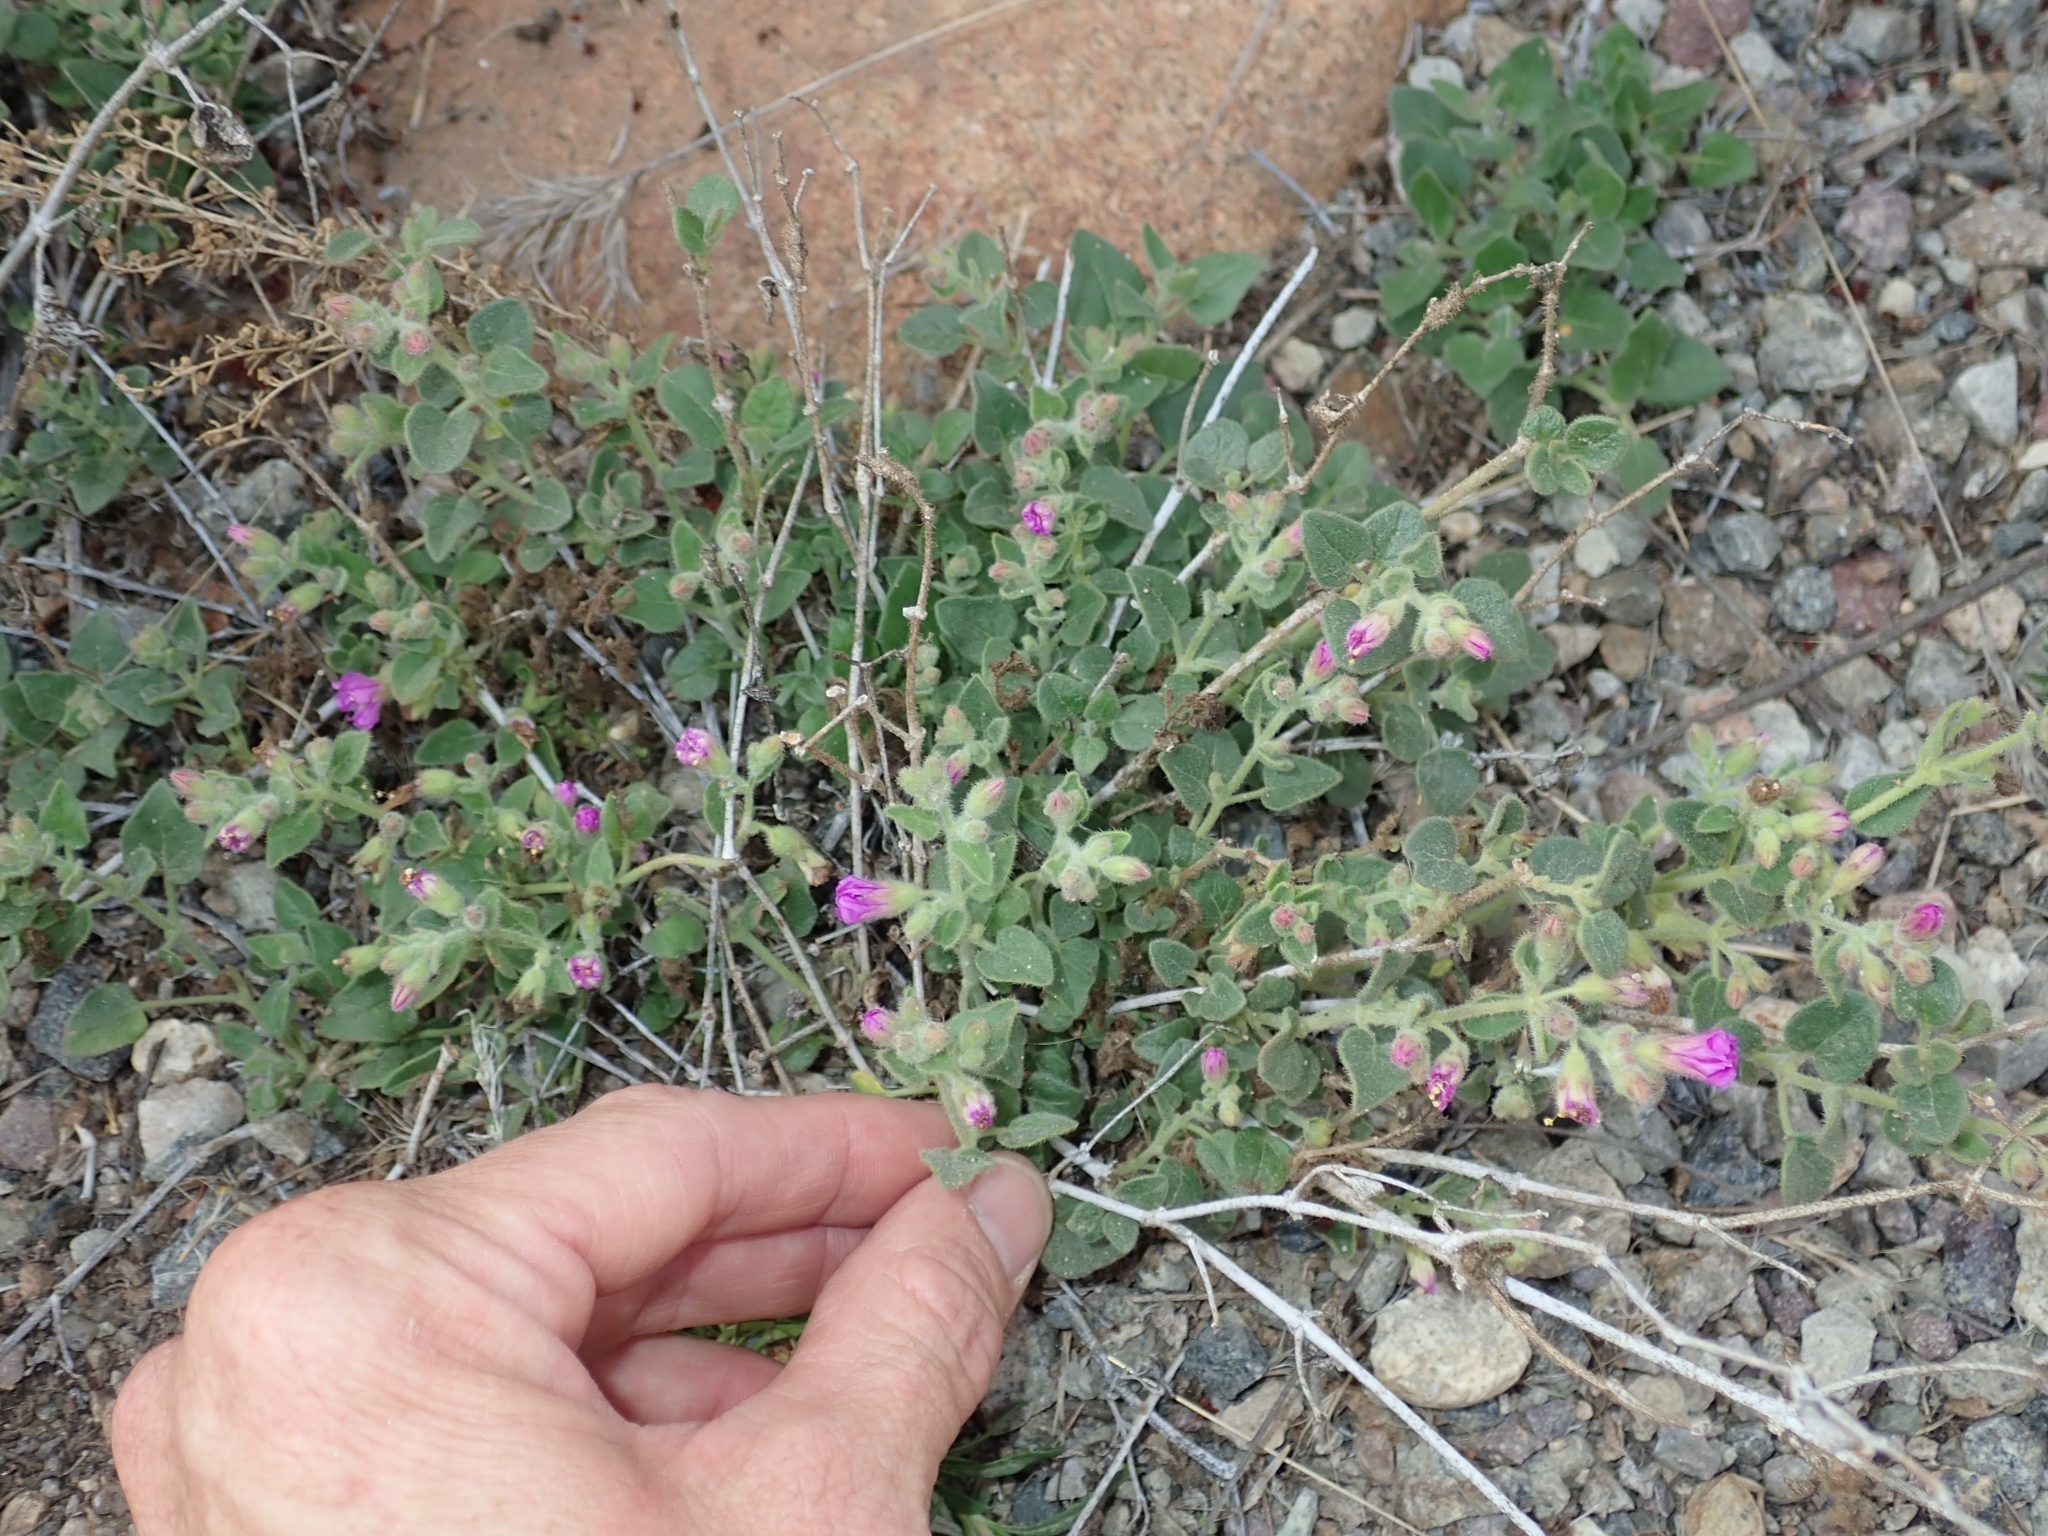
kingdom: Plantae
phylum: Tracheophyta
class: Magnoliopsida
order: Caryophyllales
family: Nyctaginaceae
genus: Mirabilis
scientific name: Mirabilis laevis
